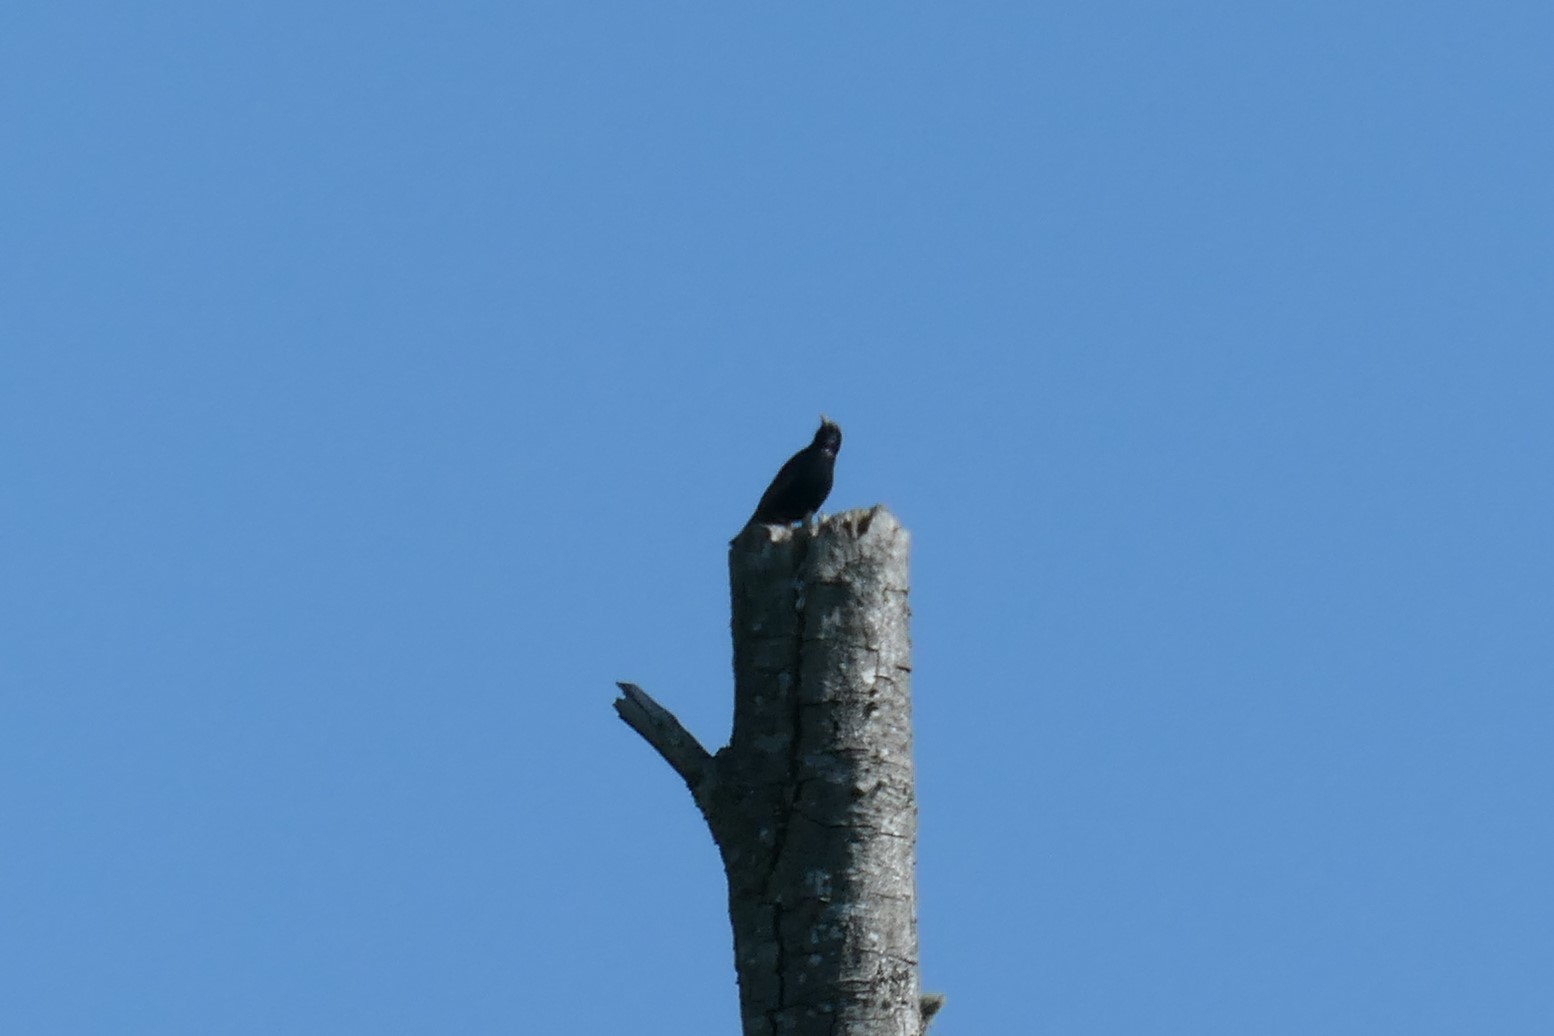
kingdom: Animalia
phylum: Chordata
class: Aves
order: Passeriformes
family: Sturnidae
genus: Sturnus
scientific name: Sturnus vulgaris
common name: Common starling
